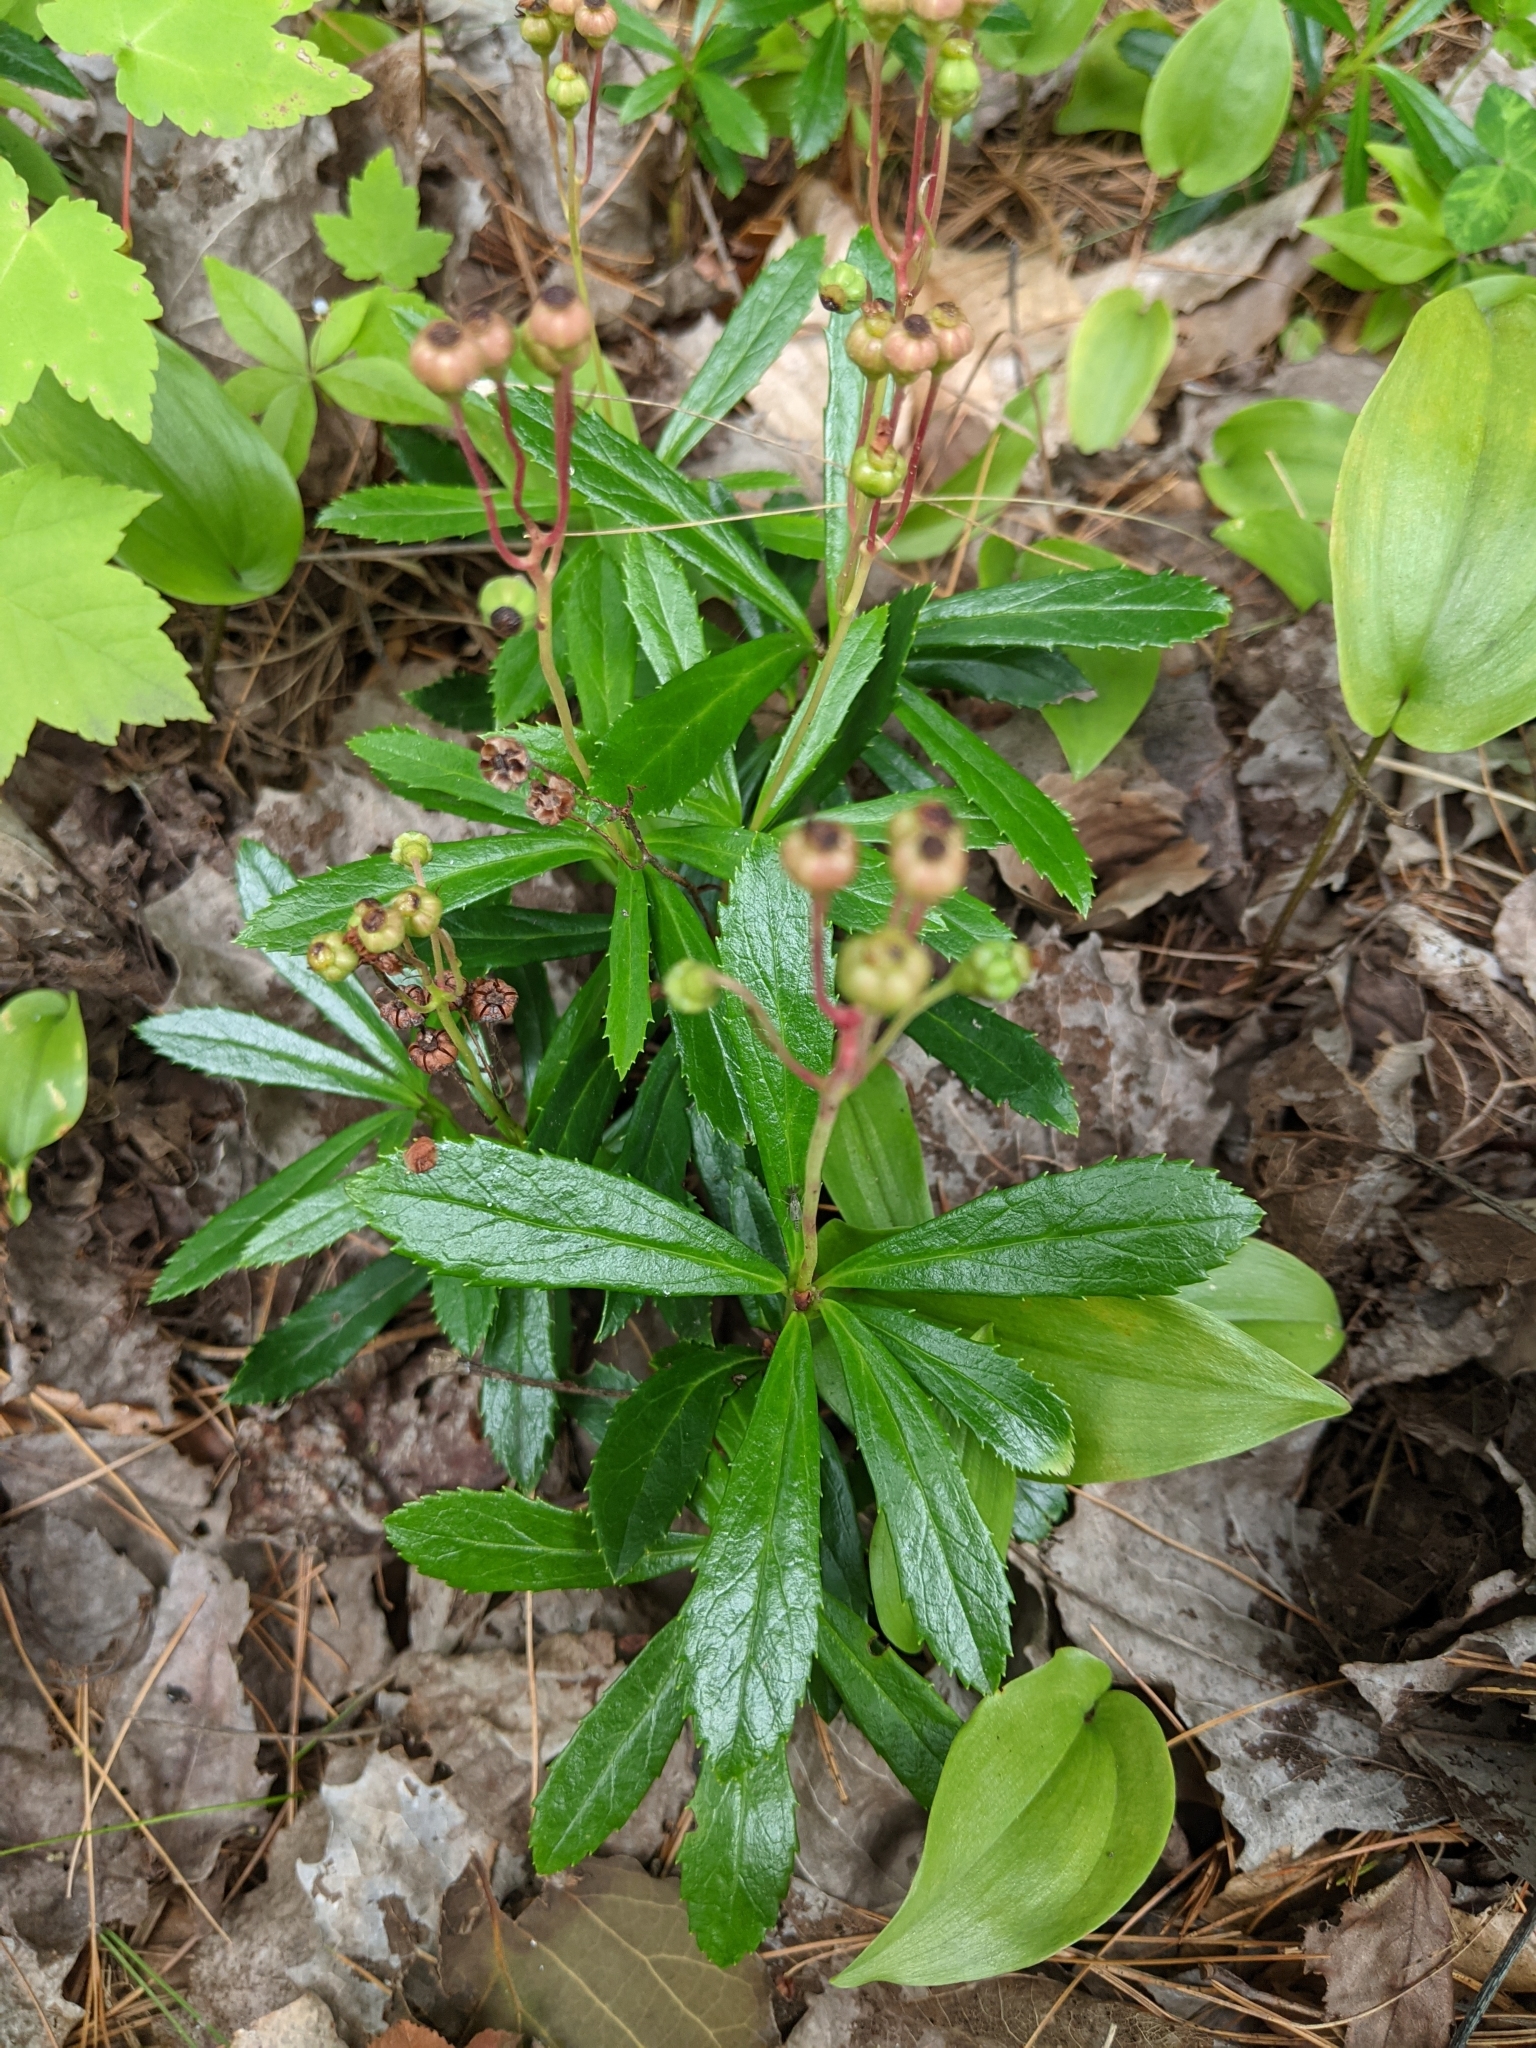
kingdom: Plantae
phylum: Tracheophyta
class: Magnoliopsida
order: Ericales
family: Ericaceae
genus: Chimaphila
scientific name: Chimaphila umbellata
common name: Pipsissewa
